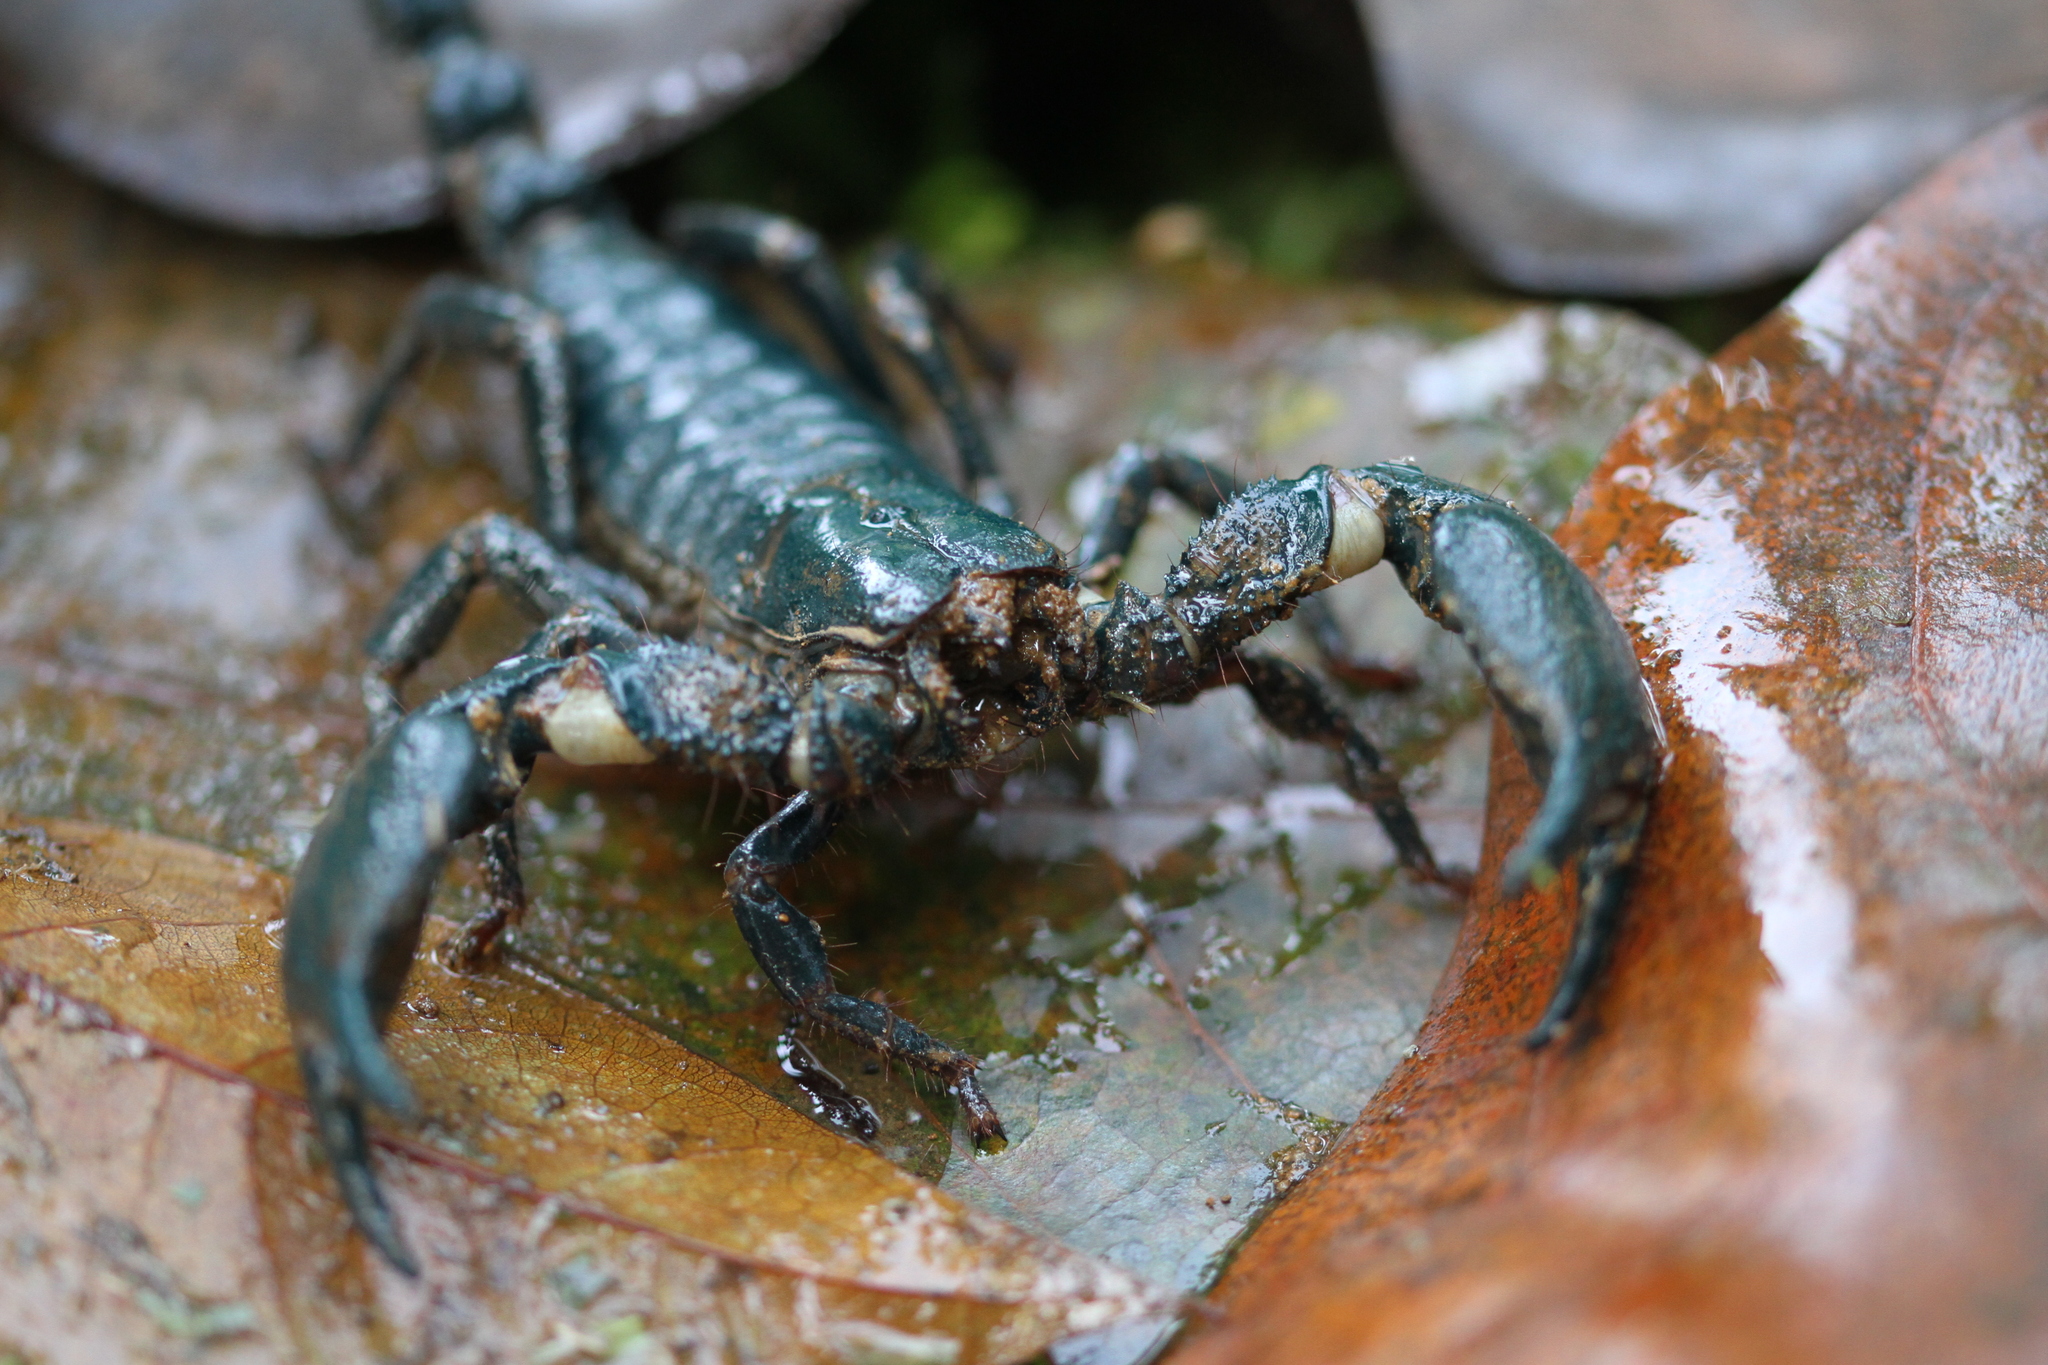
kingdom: Animalia
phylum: Arthropoda
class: Arachnida
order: Scorpiones
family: Scorpionidae
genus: Javanimetrus
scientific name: Javanimetrus cyaneus
